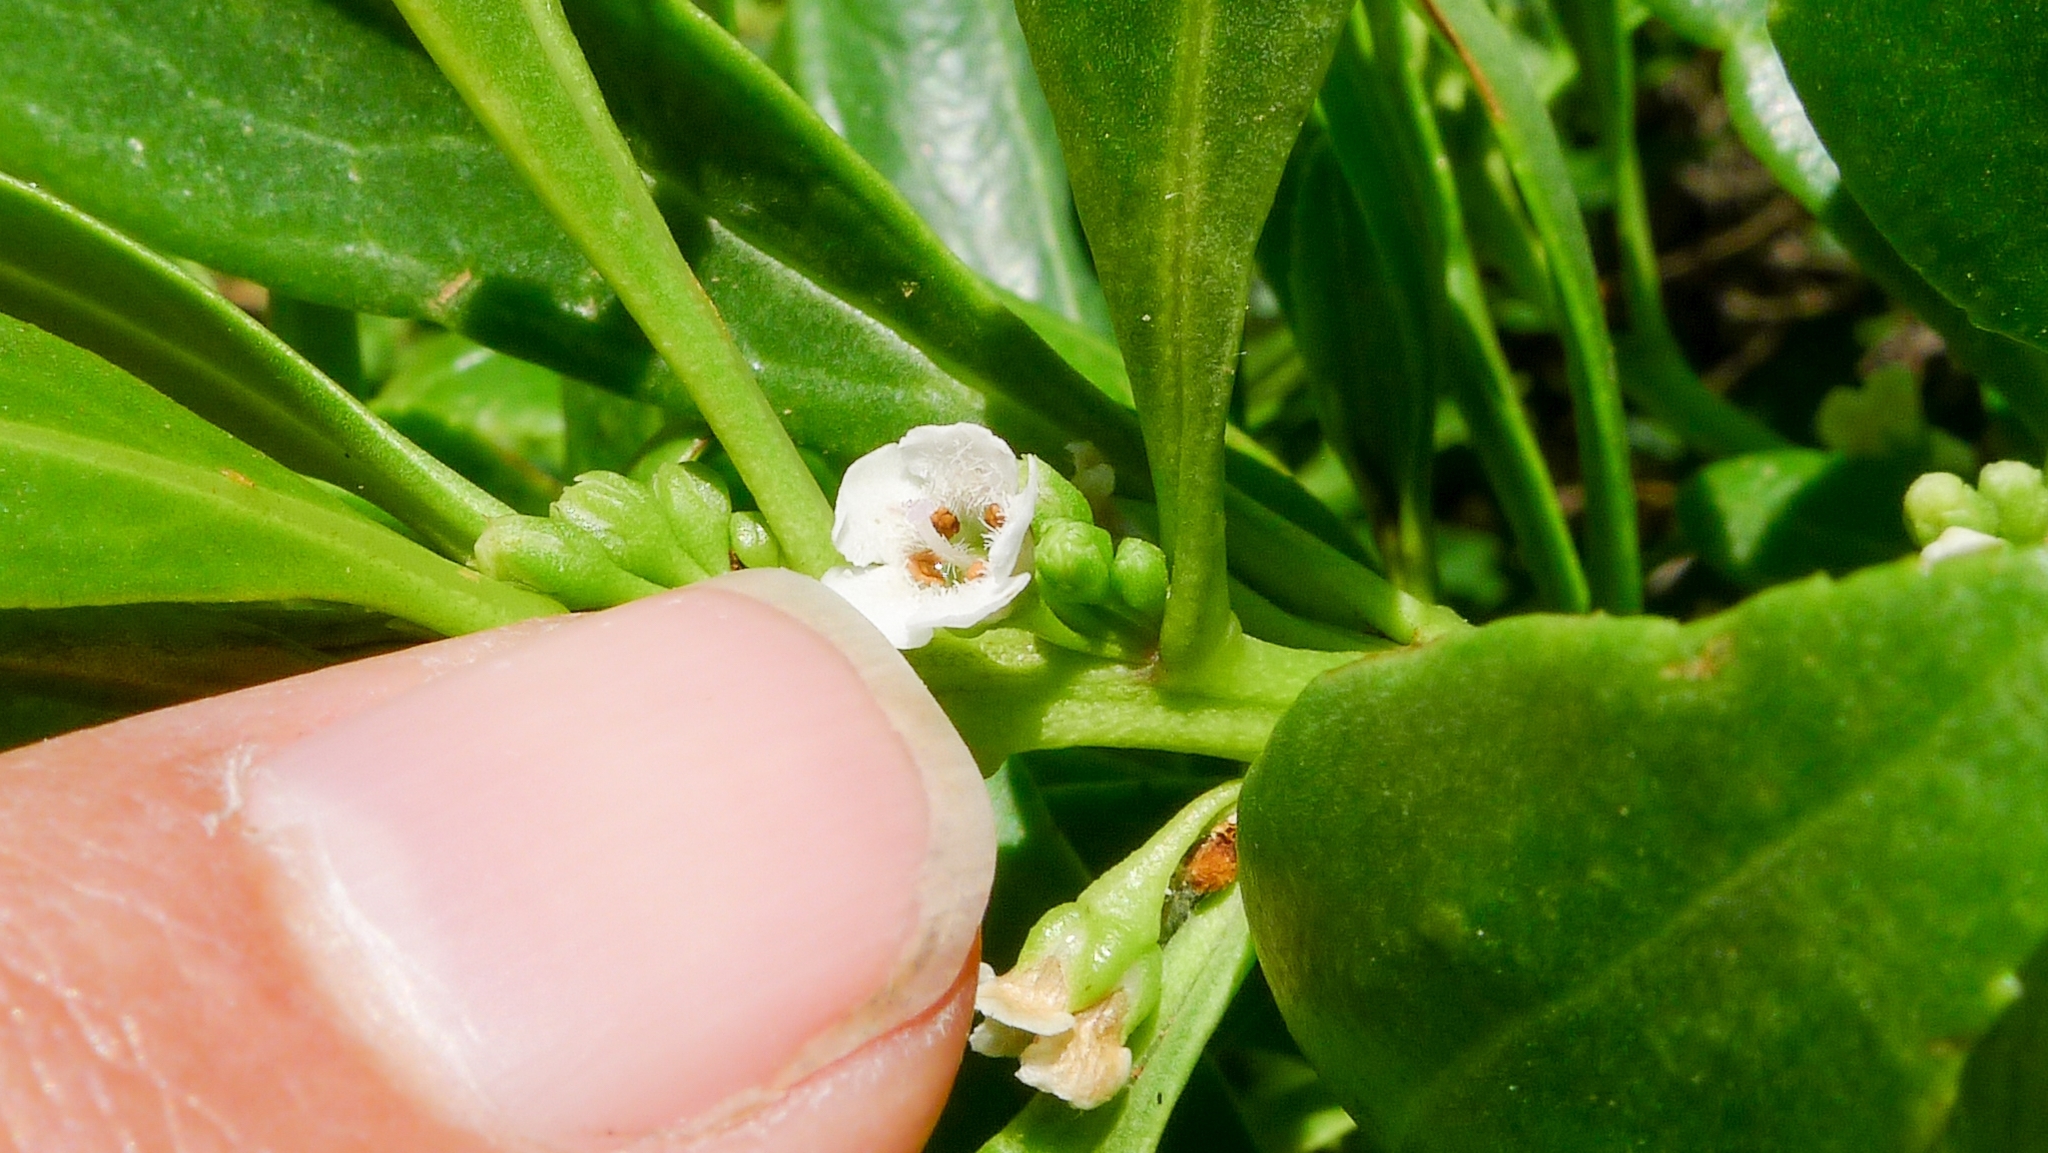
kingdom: Plantae
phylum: Tracheophyta
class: Magnoliopsida
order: Lamiales
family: Scrophulariaceae
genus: Myoporum
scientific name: Myoporum insulare
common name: Common boobialla
